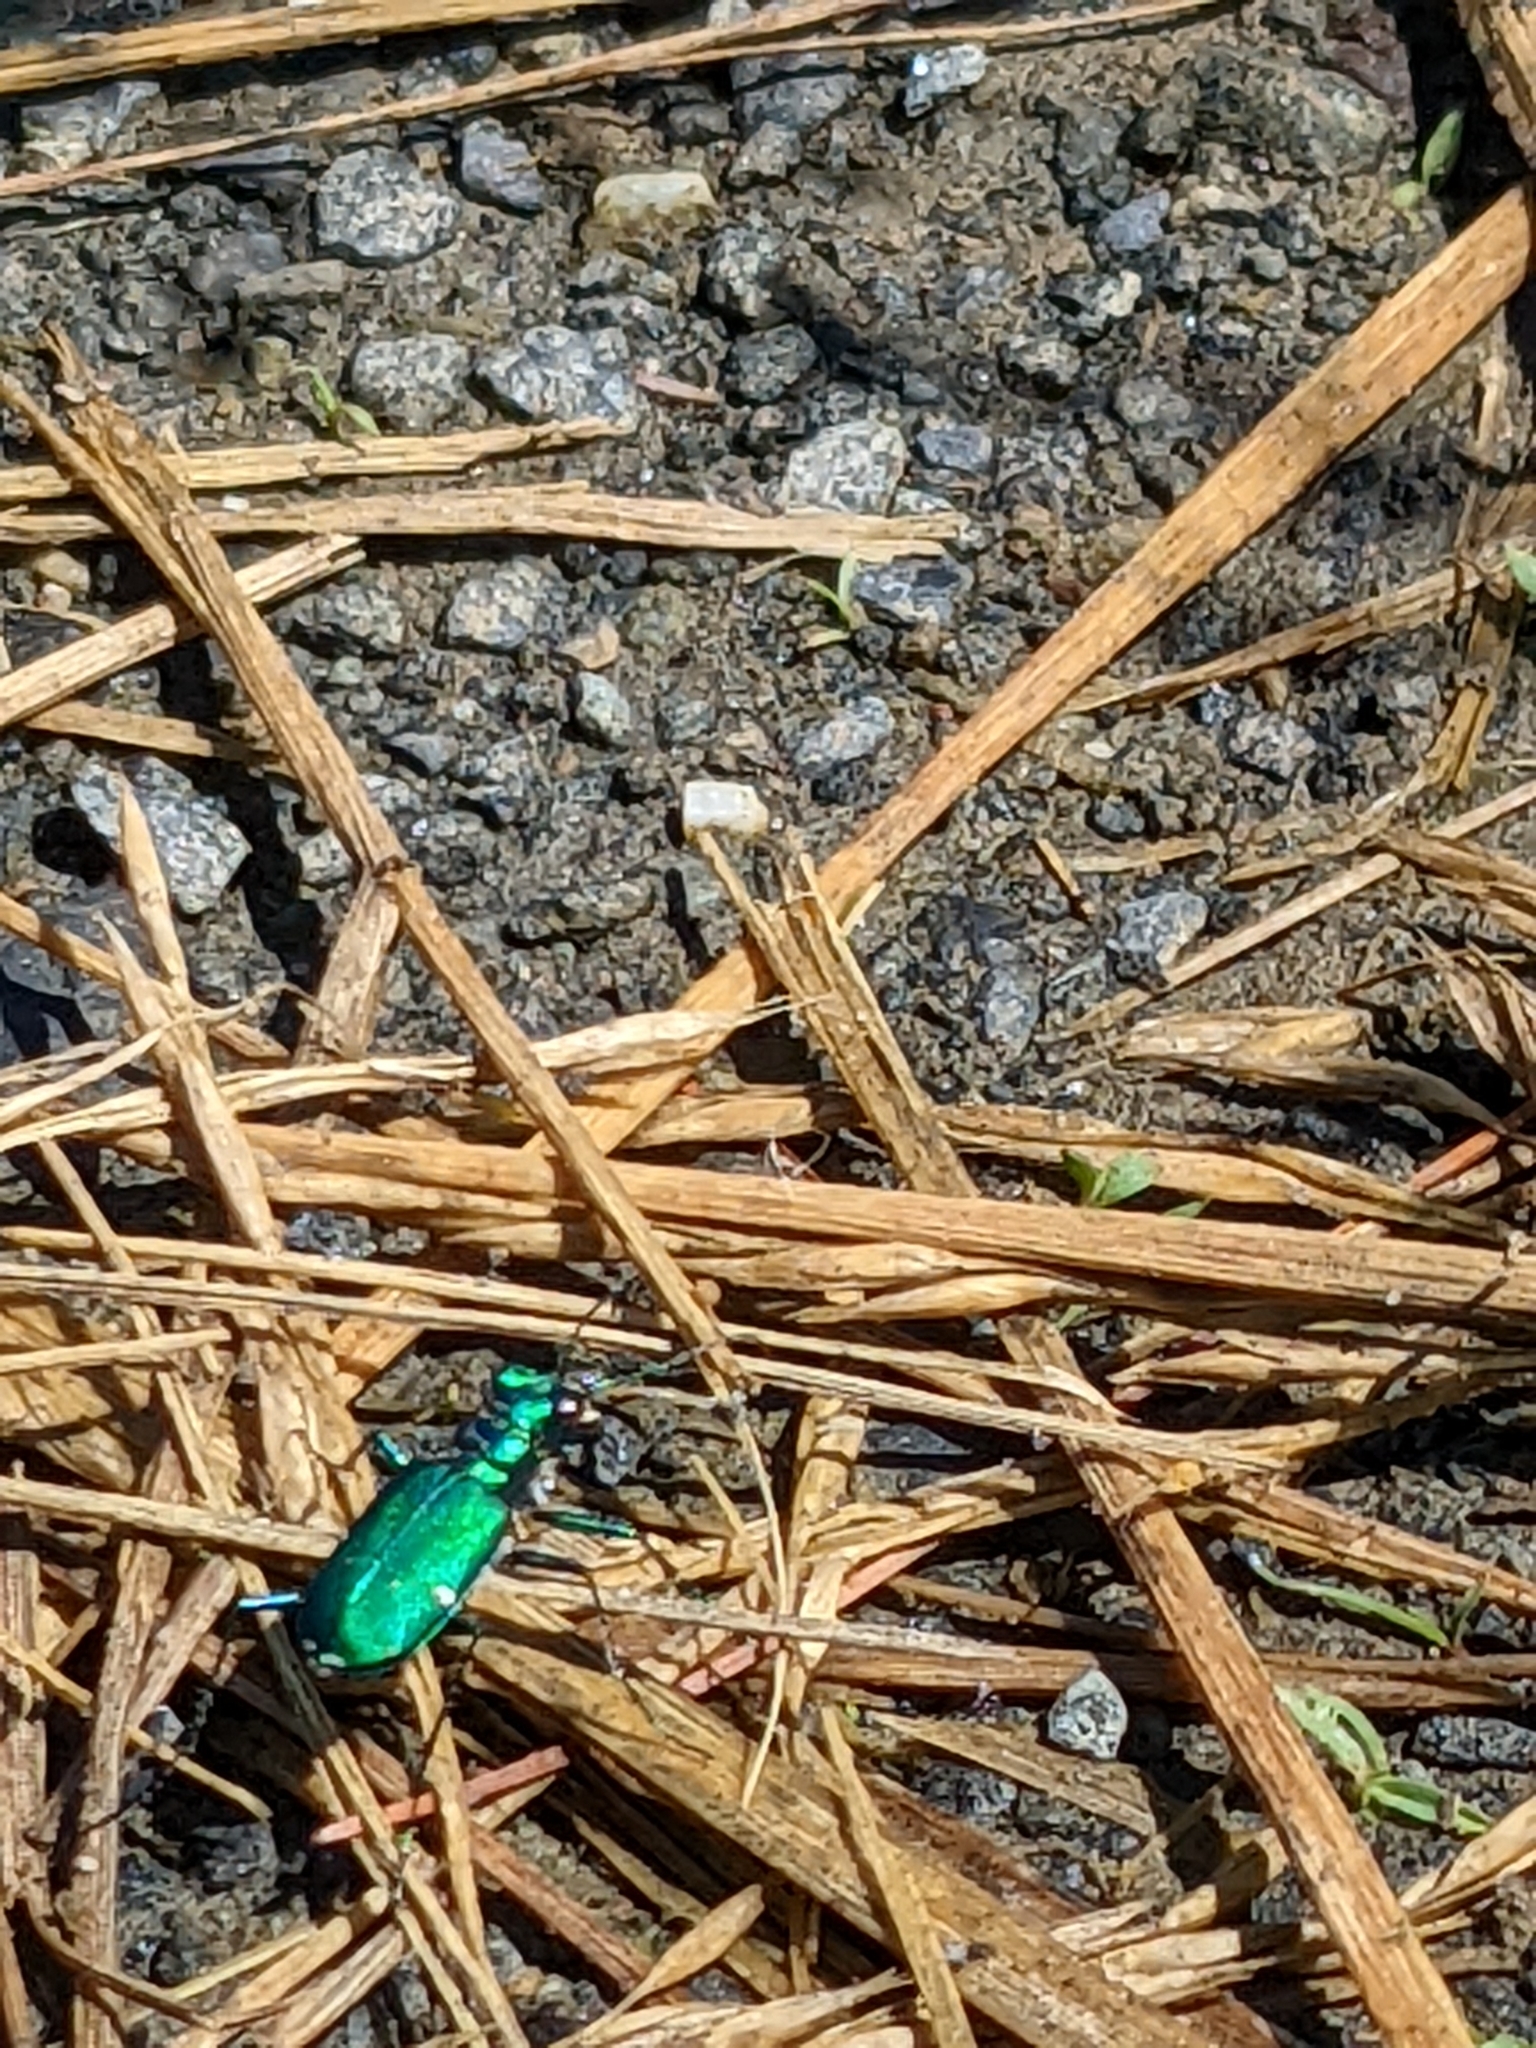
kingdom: Animalia
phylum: Arthropoda
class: Insecta
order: Coleoptera
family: Carabidae
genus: Cicindela
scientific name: Cicindela sexguttata
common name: Six-spotted tiger beetle
